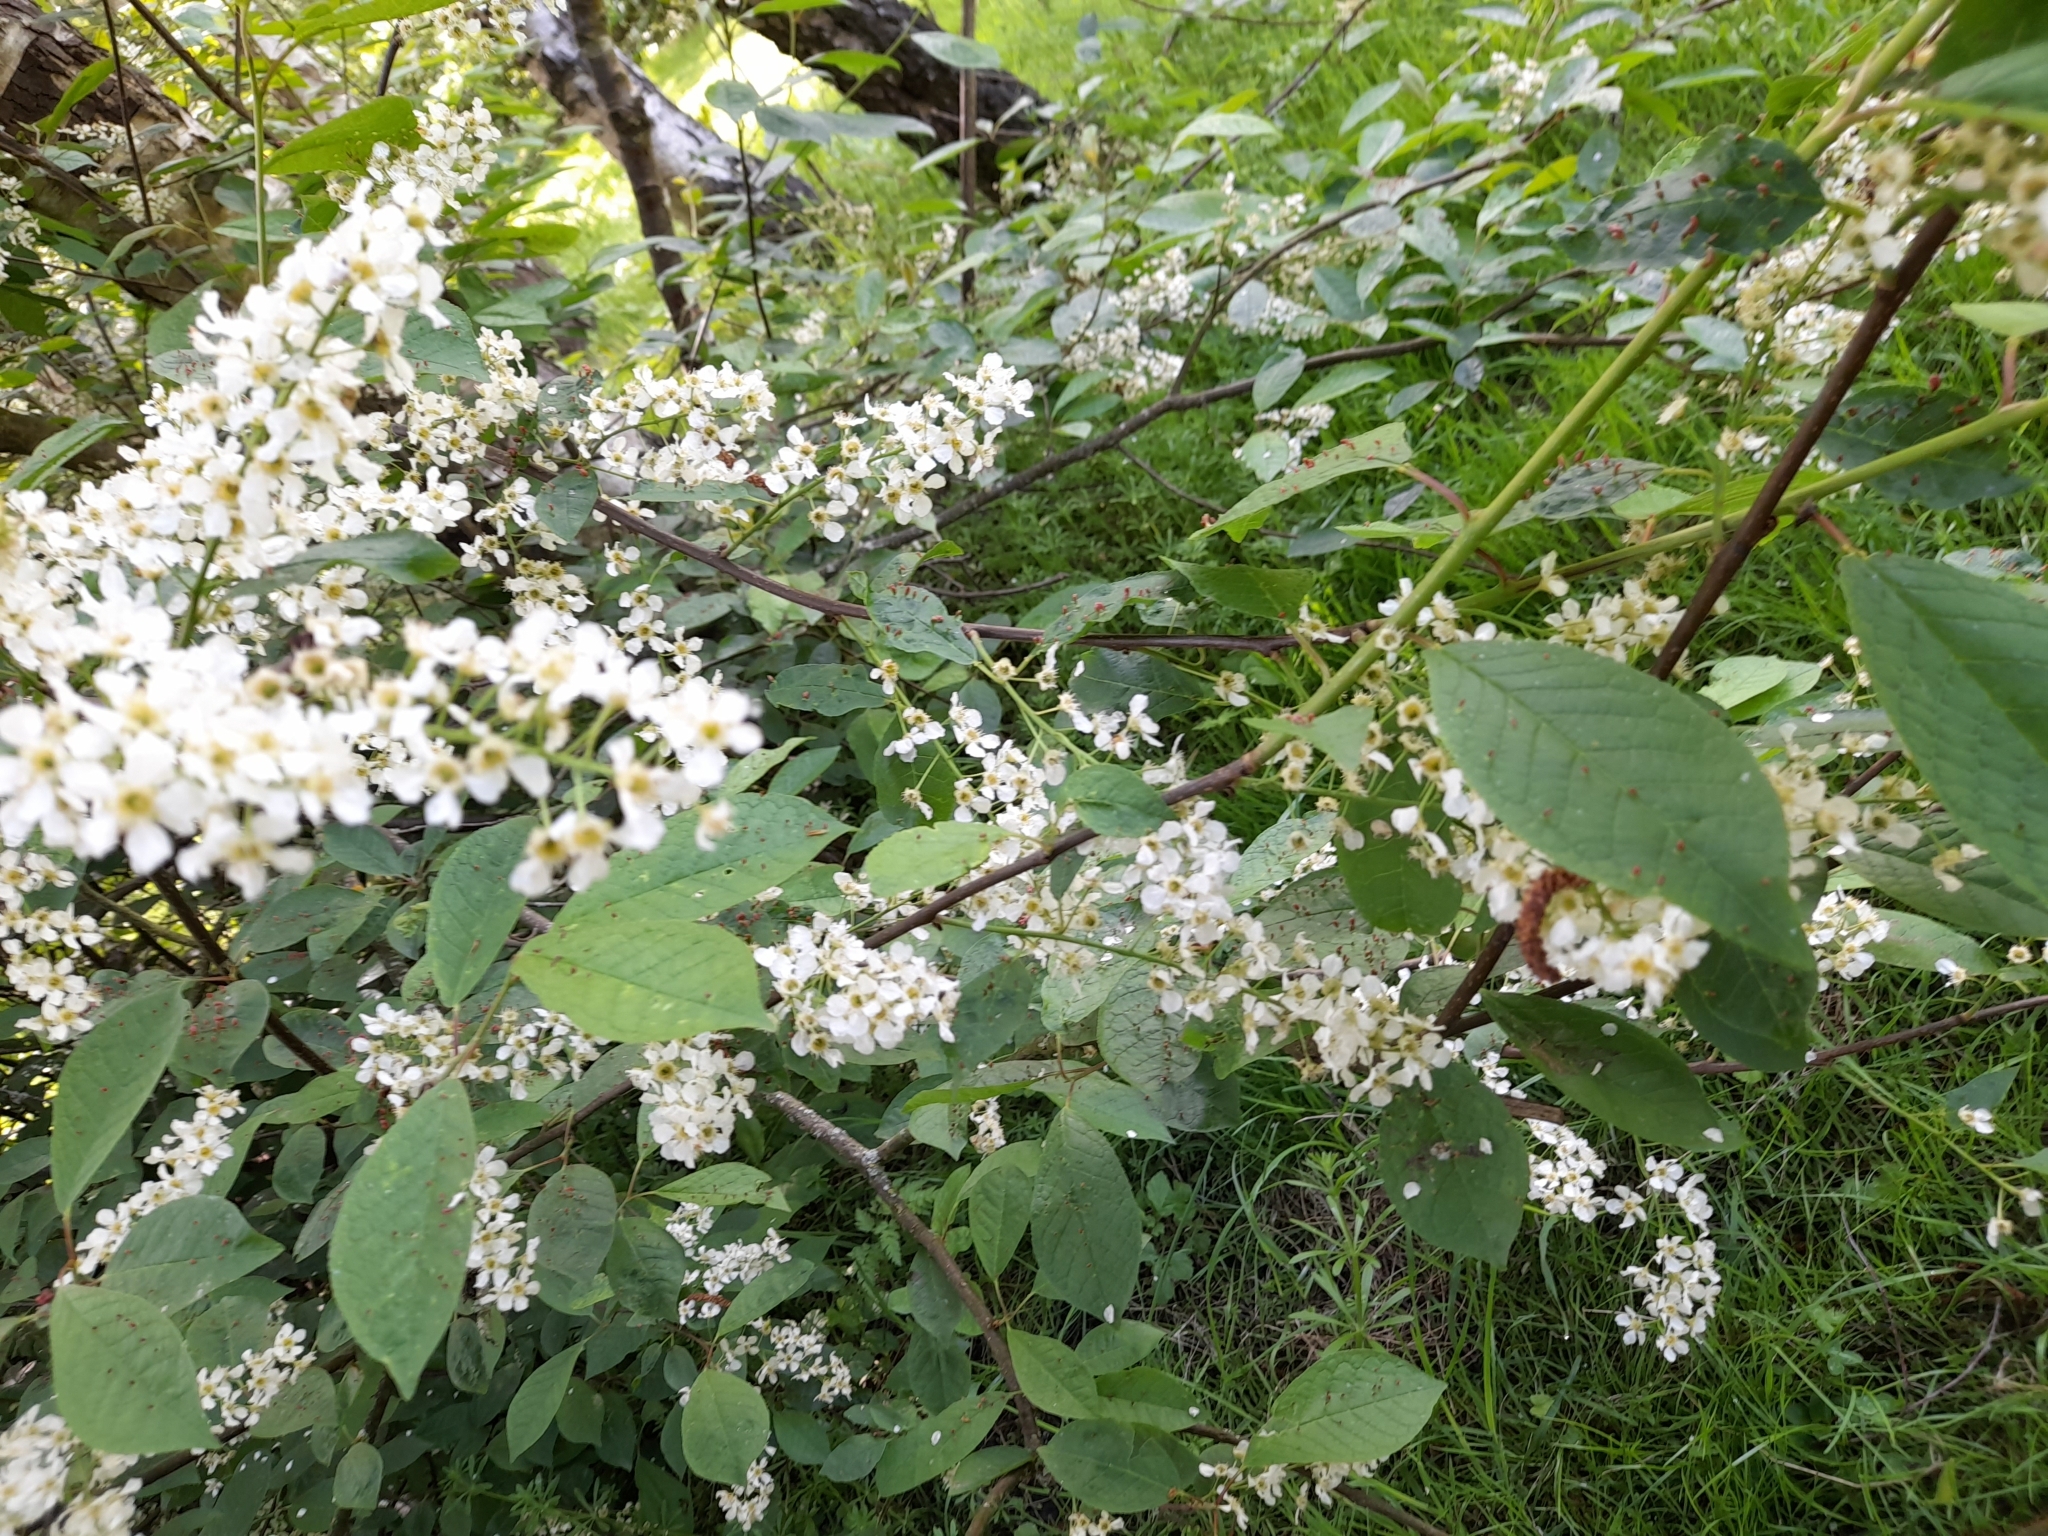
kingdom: Plantae
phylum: Tracheophyta
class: Magnoliopsida
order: Rosales
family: Rosaceae
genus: Prunus
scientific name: Prunus padus
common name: Bird cherry
